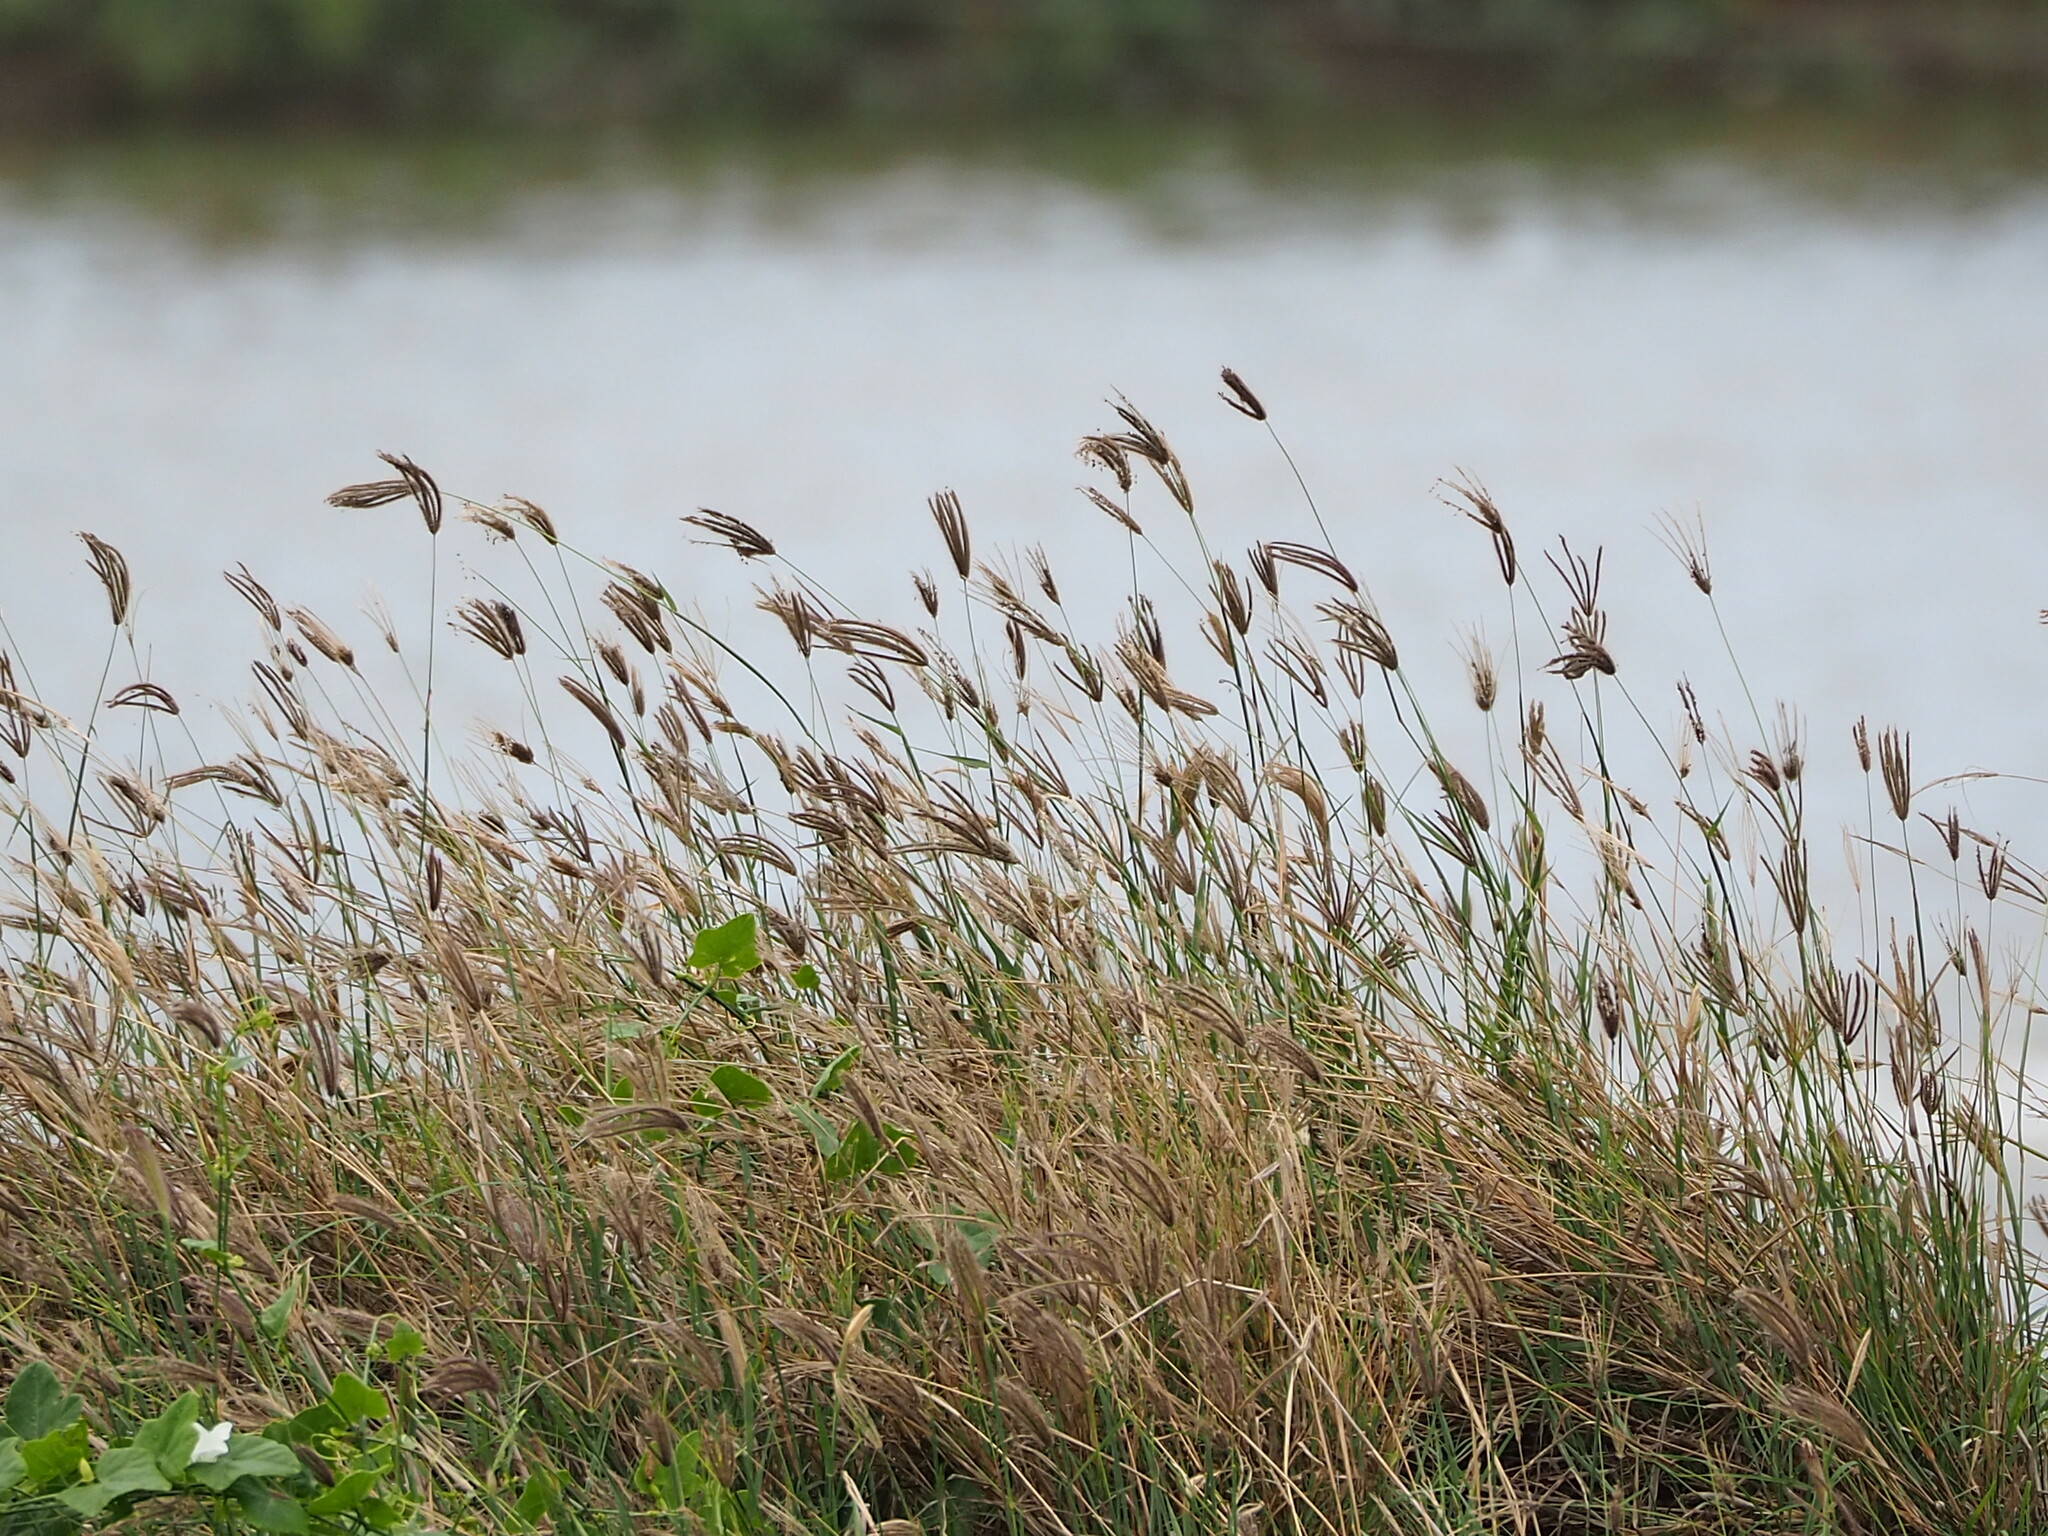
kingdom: Plantae
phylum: Tracheophyta
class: Liliopsida
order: Poales
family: Poaceae
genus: Chloris
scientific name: Chloris barbata
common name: Swollen fingergrass
